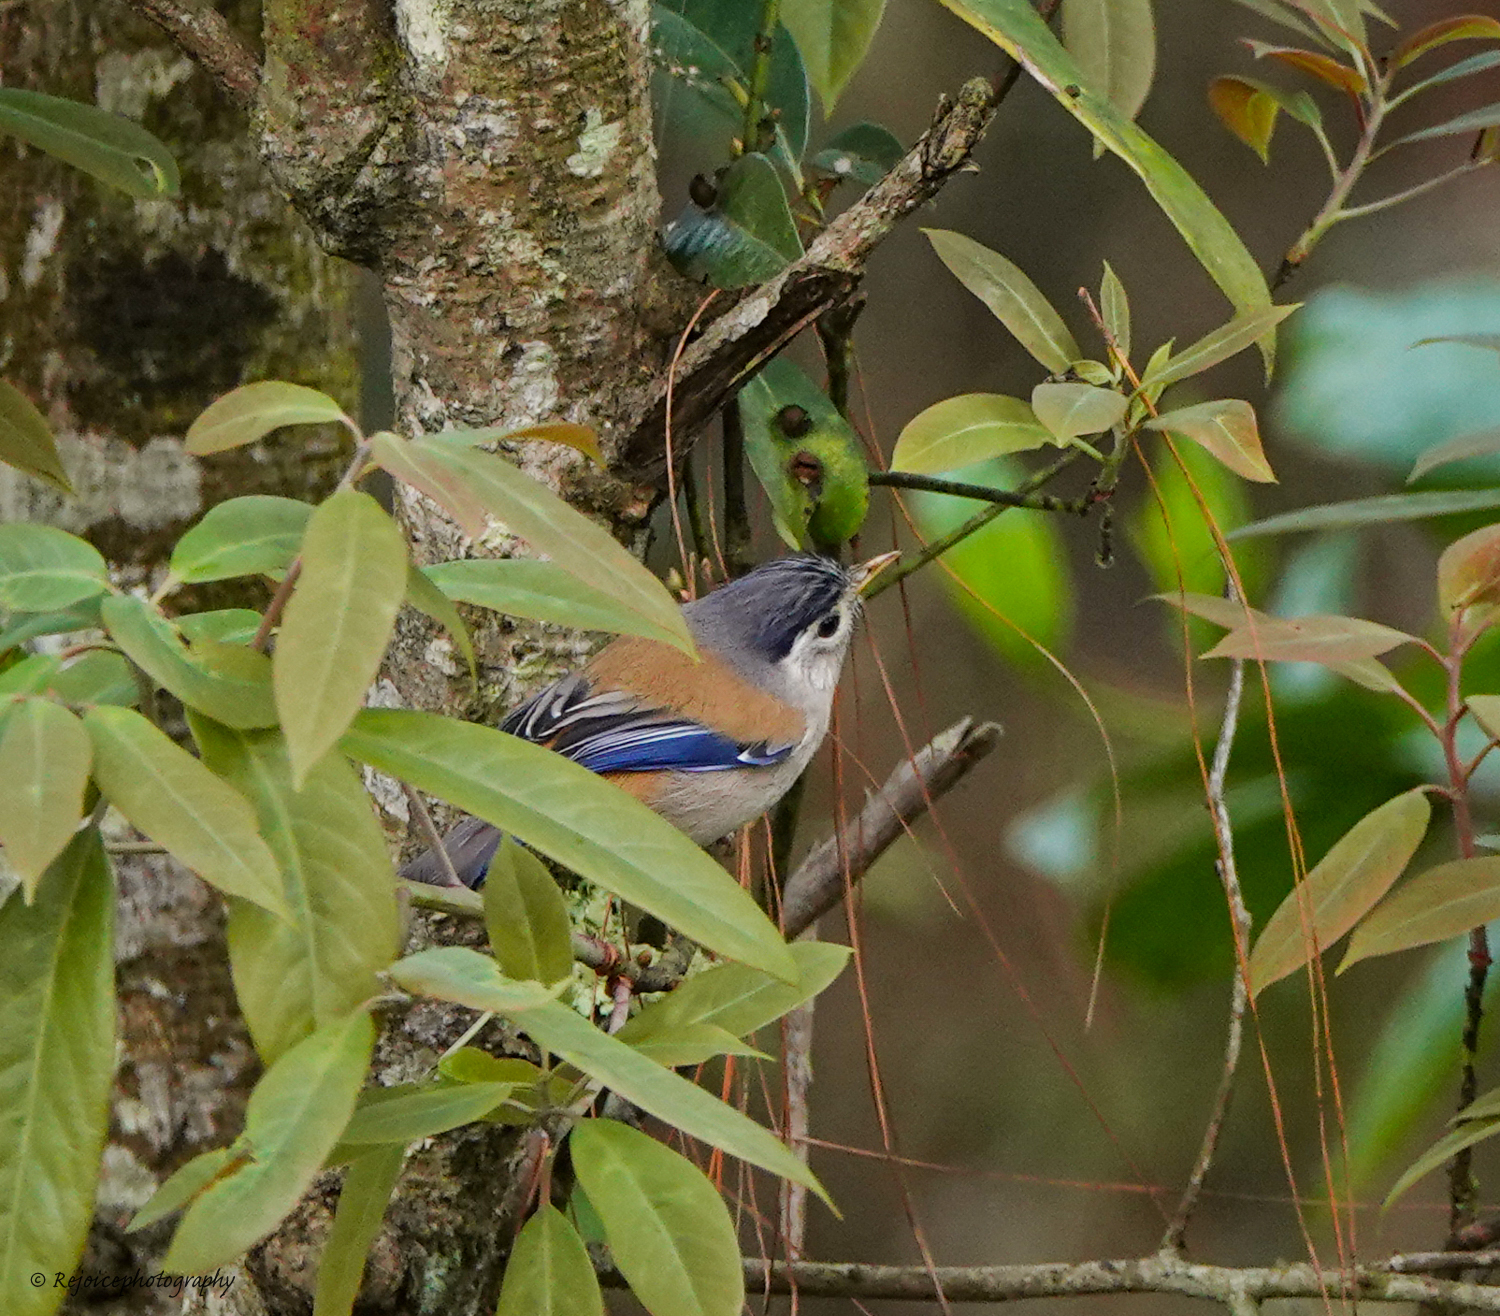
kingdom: Animalia
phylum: Chordata
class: Aves
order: Passeriformes
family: Leiothrichidae
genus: Minla
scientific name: Minla cyanouroptera
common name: Blue-winged minla
